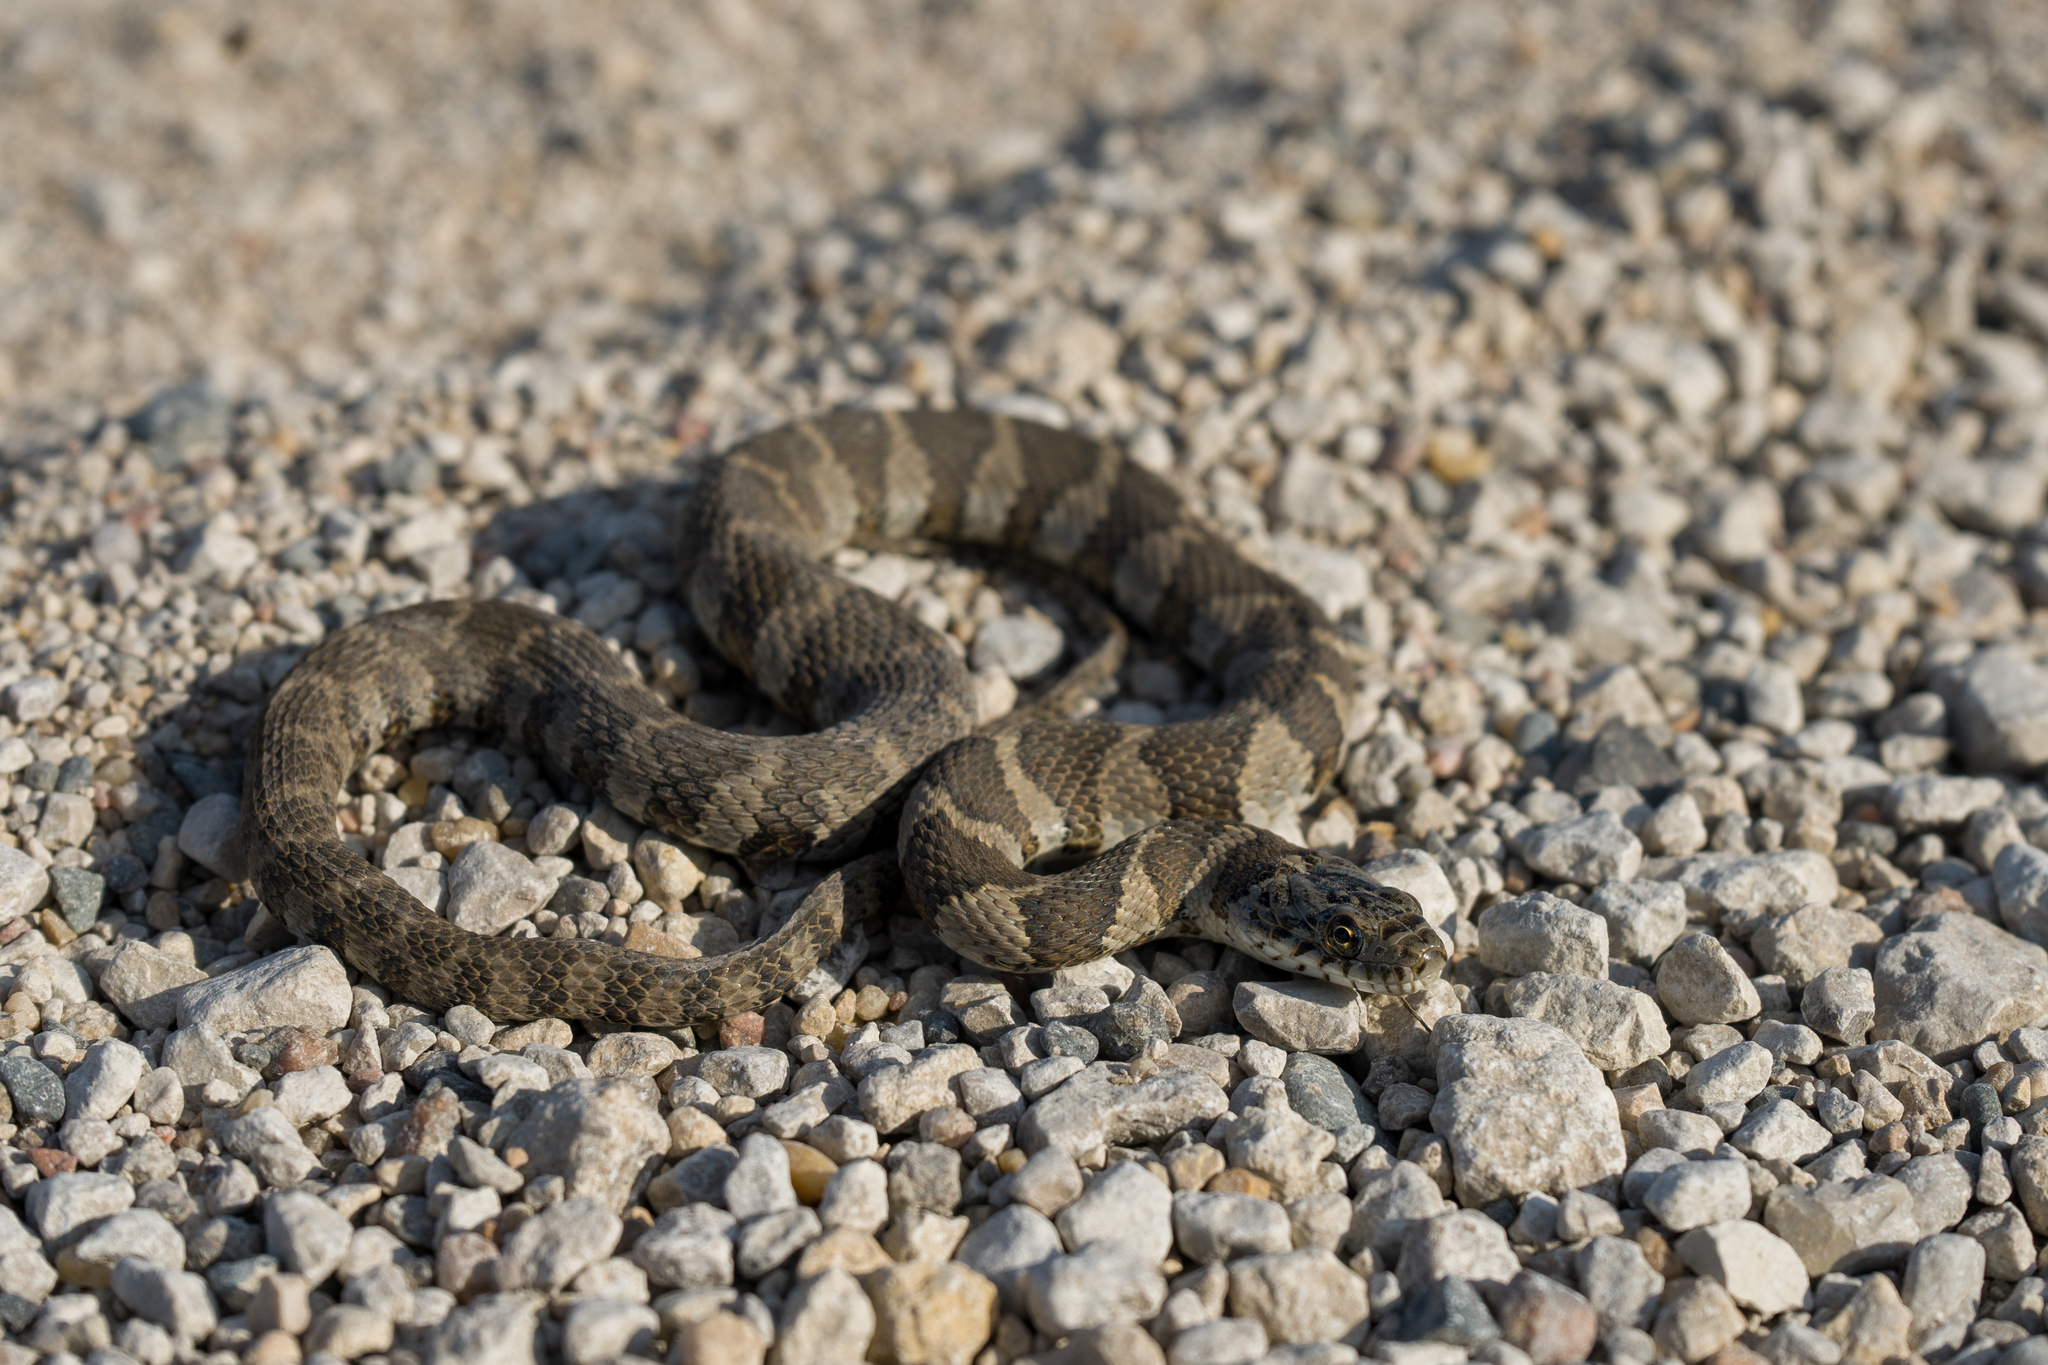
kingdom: Animalia
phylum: Chordata
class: Squamata
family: Colubridae
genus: Nerodia
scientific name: Nerodia sipedon
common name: Northern water snake
